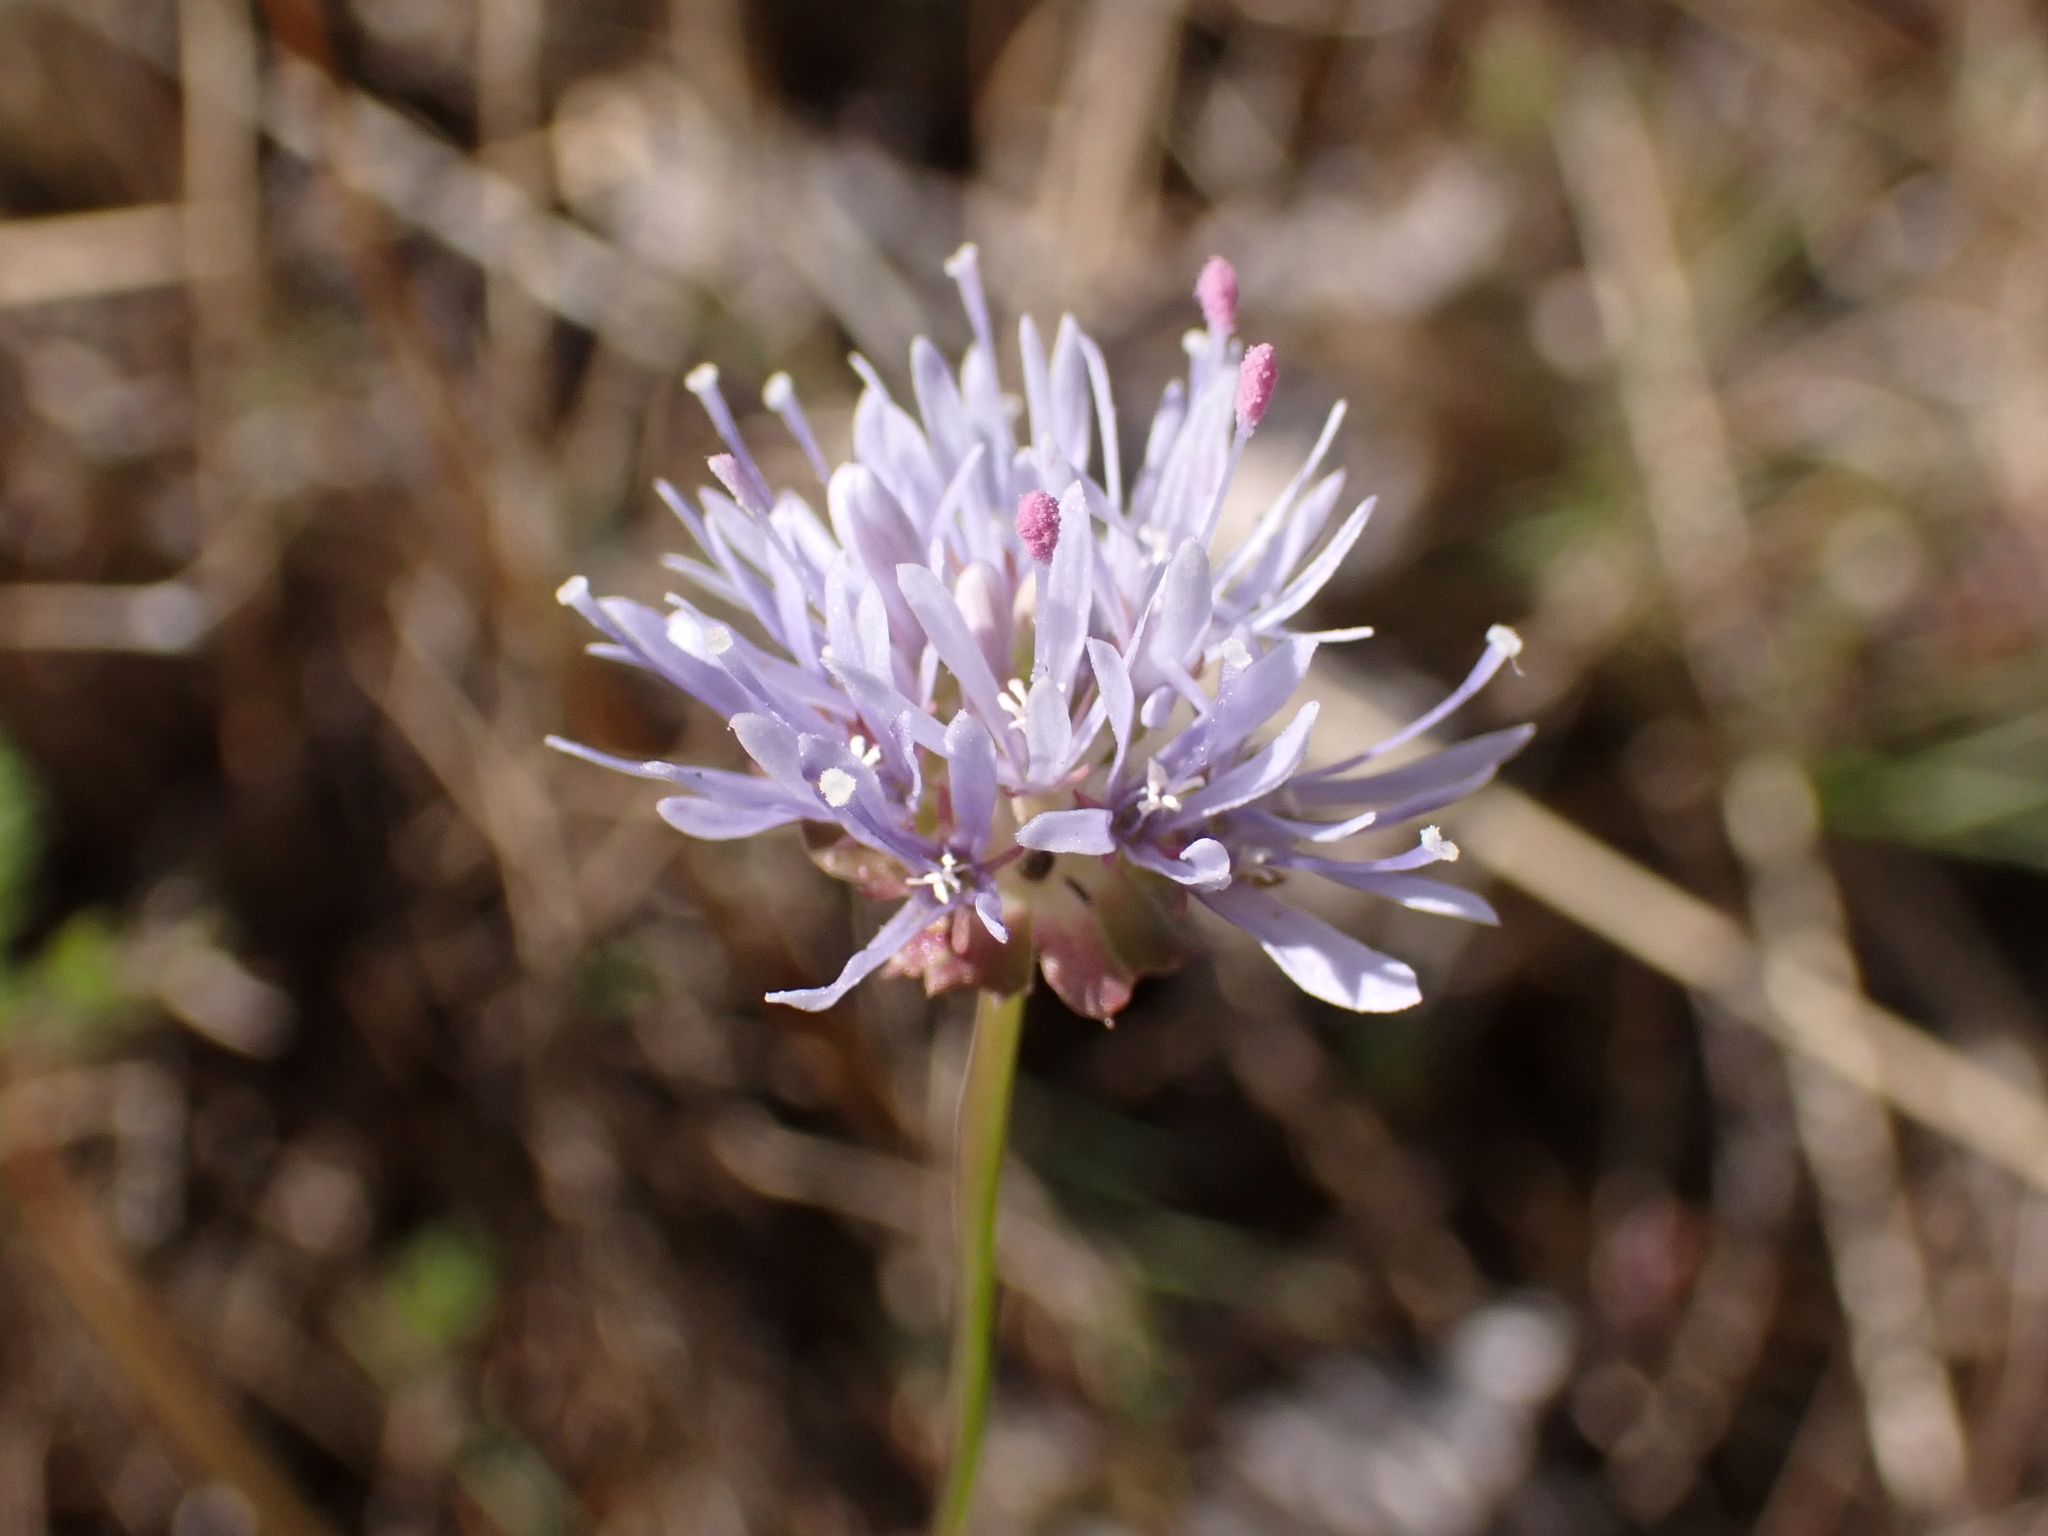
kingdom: Plantae
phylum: Tracheophyta
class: Magnoliopsida
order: Asterales
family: Campanulaceae
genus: Jasione
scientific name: Jasione montana
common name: Sheep's-bit
